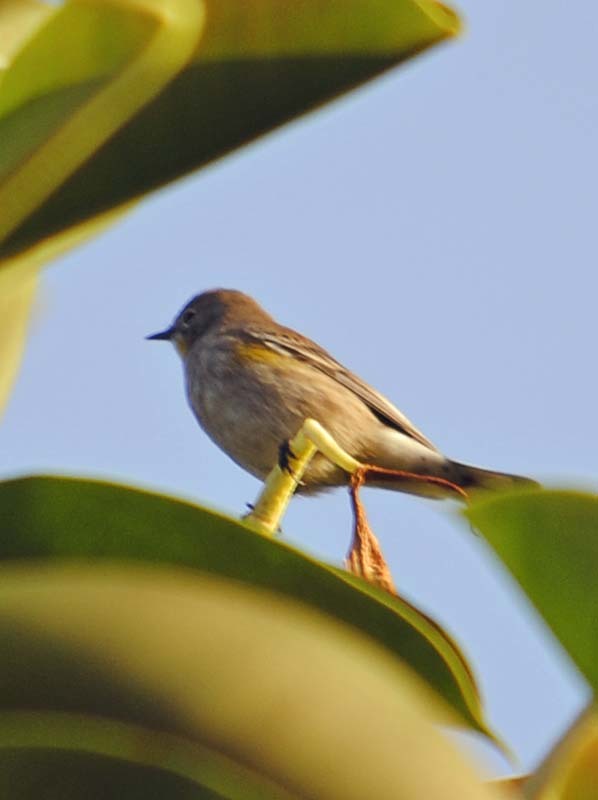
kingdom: Animalia
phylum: Chordata
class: Aves
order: Passeriformes
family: Parulidae
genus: Setophaga
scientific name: Setophaga coronata
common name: Myrtle warbler
